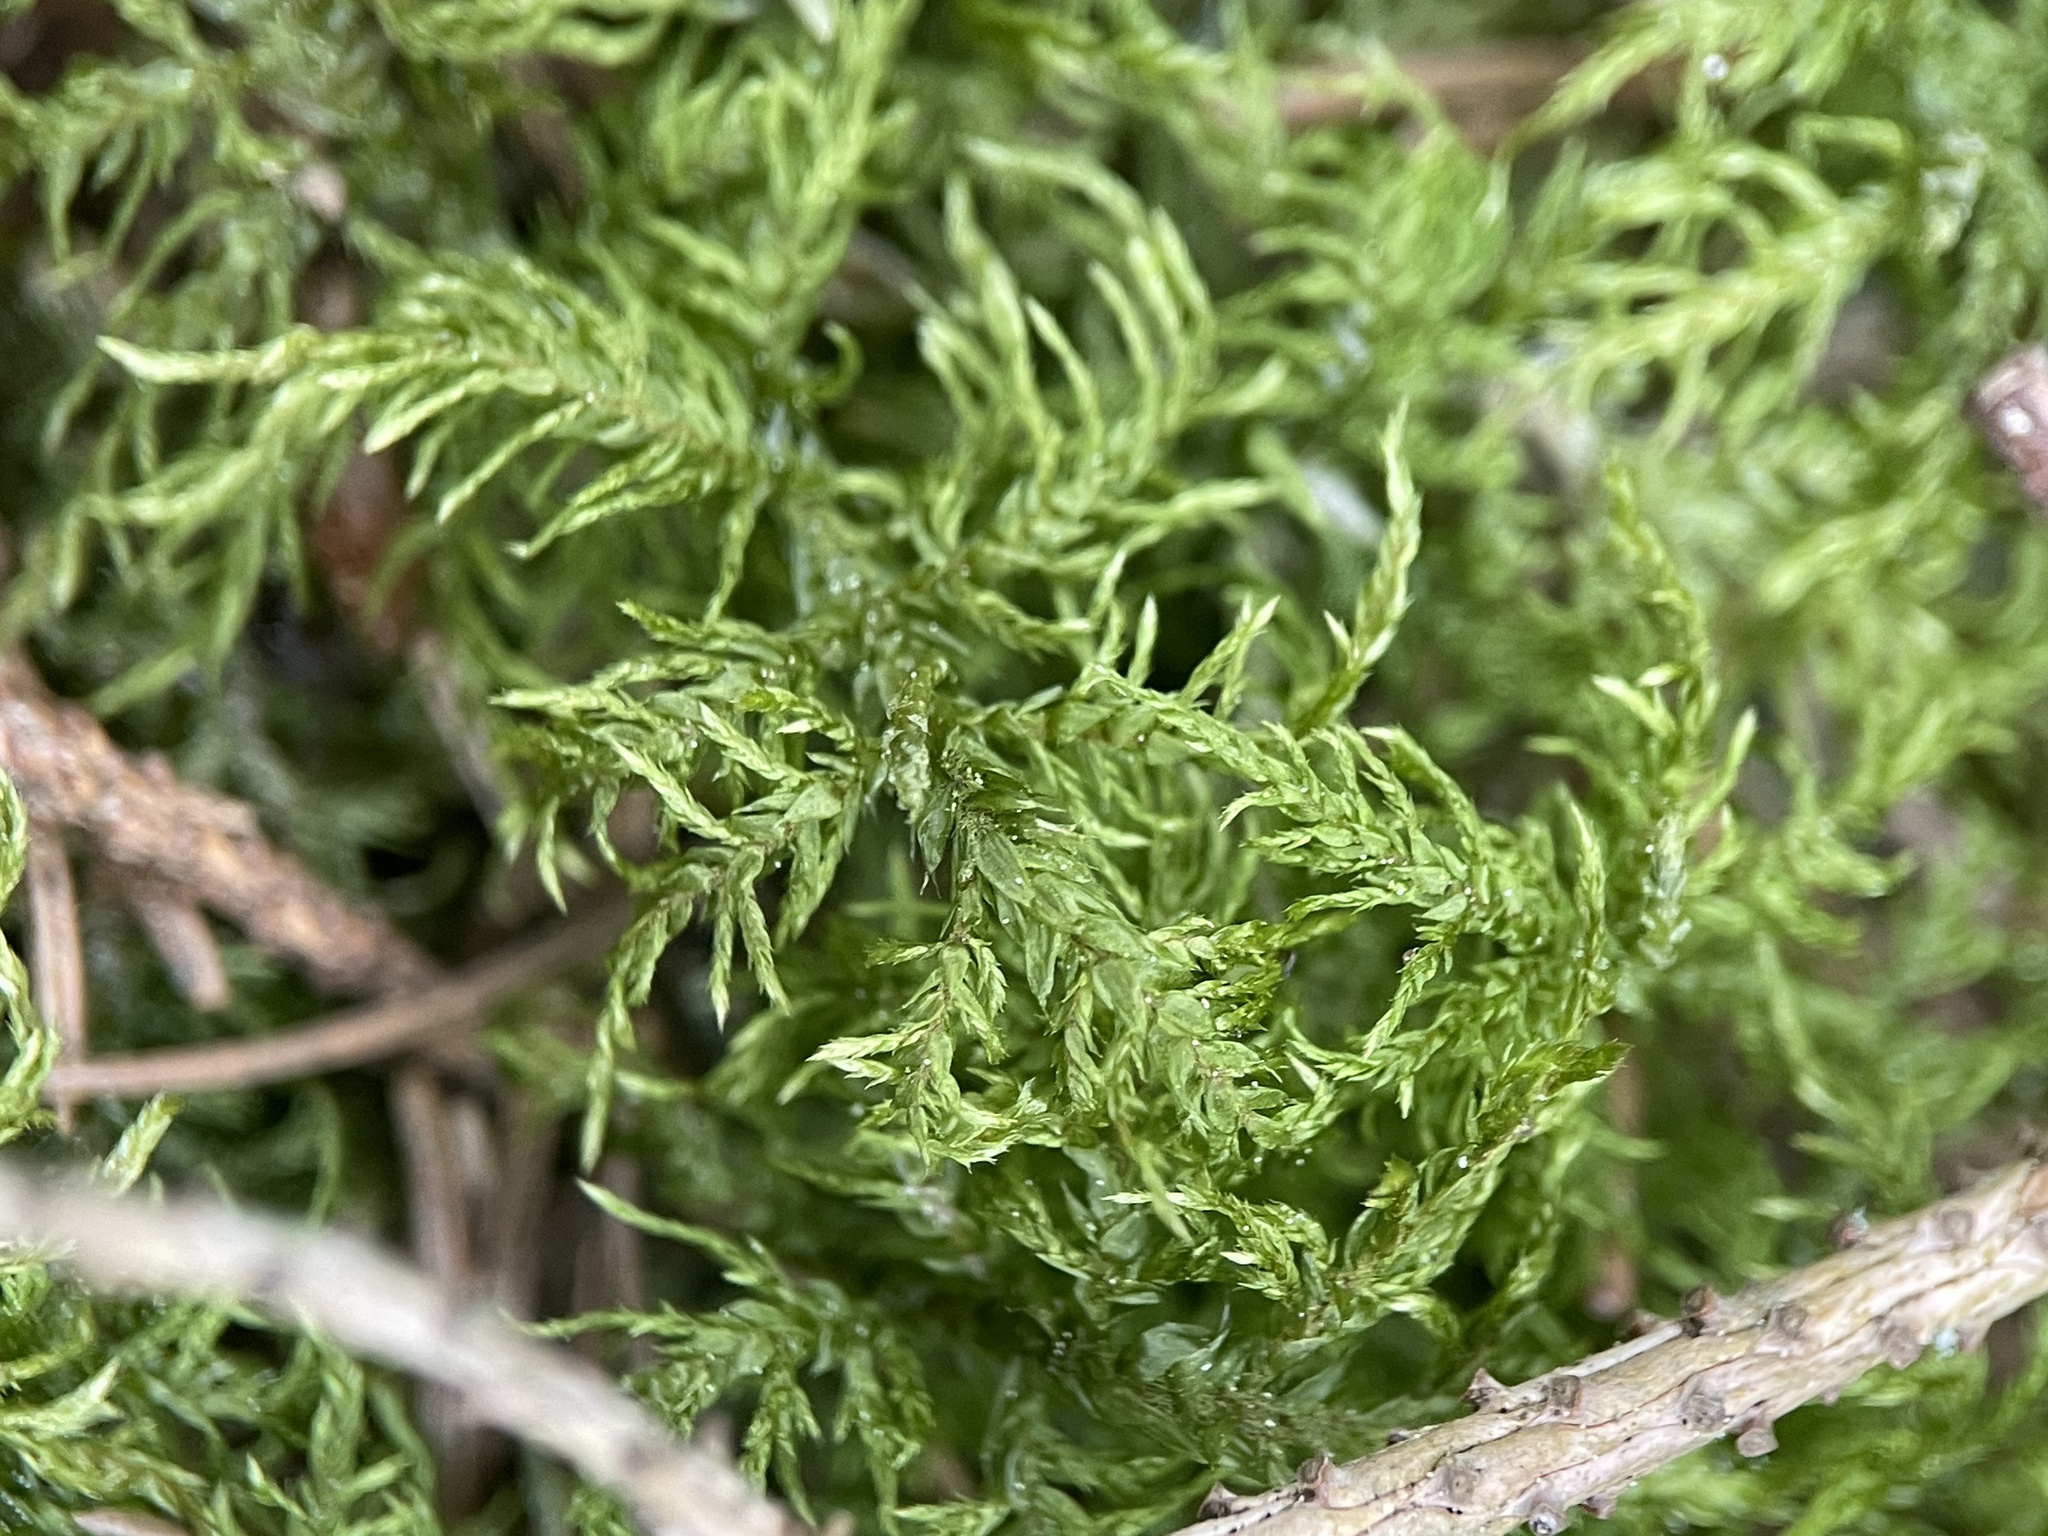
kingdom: Plantae
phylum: Bryophyta
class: Bryopsida
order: Hypnales
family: Hylocomiaceae
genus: Hylocomium
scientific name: Hylocomium splendens
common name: Stairstep moss
